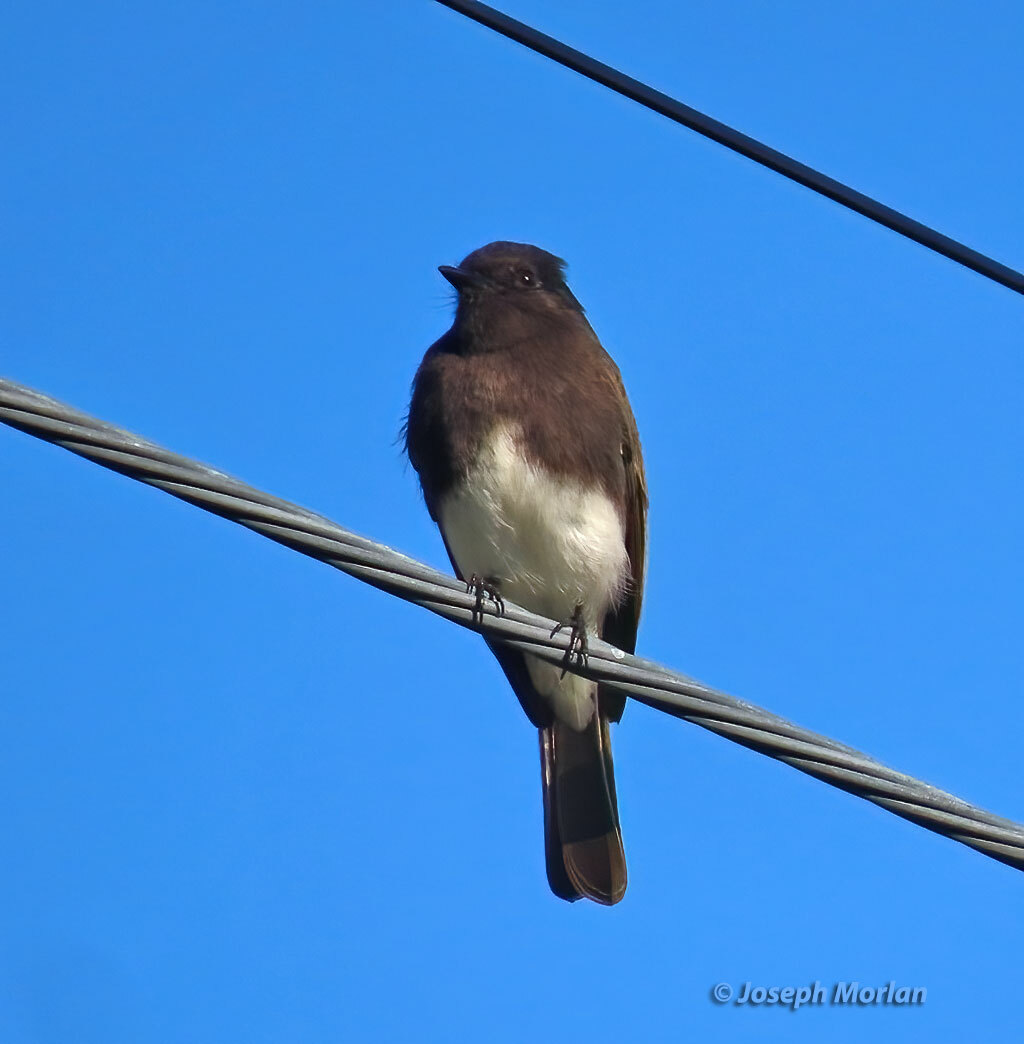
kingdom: Animalia
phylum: Chordata
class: Aves
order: Passeriformes
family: Tyrannidae
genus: Sayornis
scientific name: Sayornis nigricans
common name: Black phoebe
